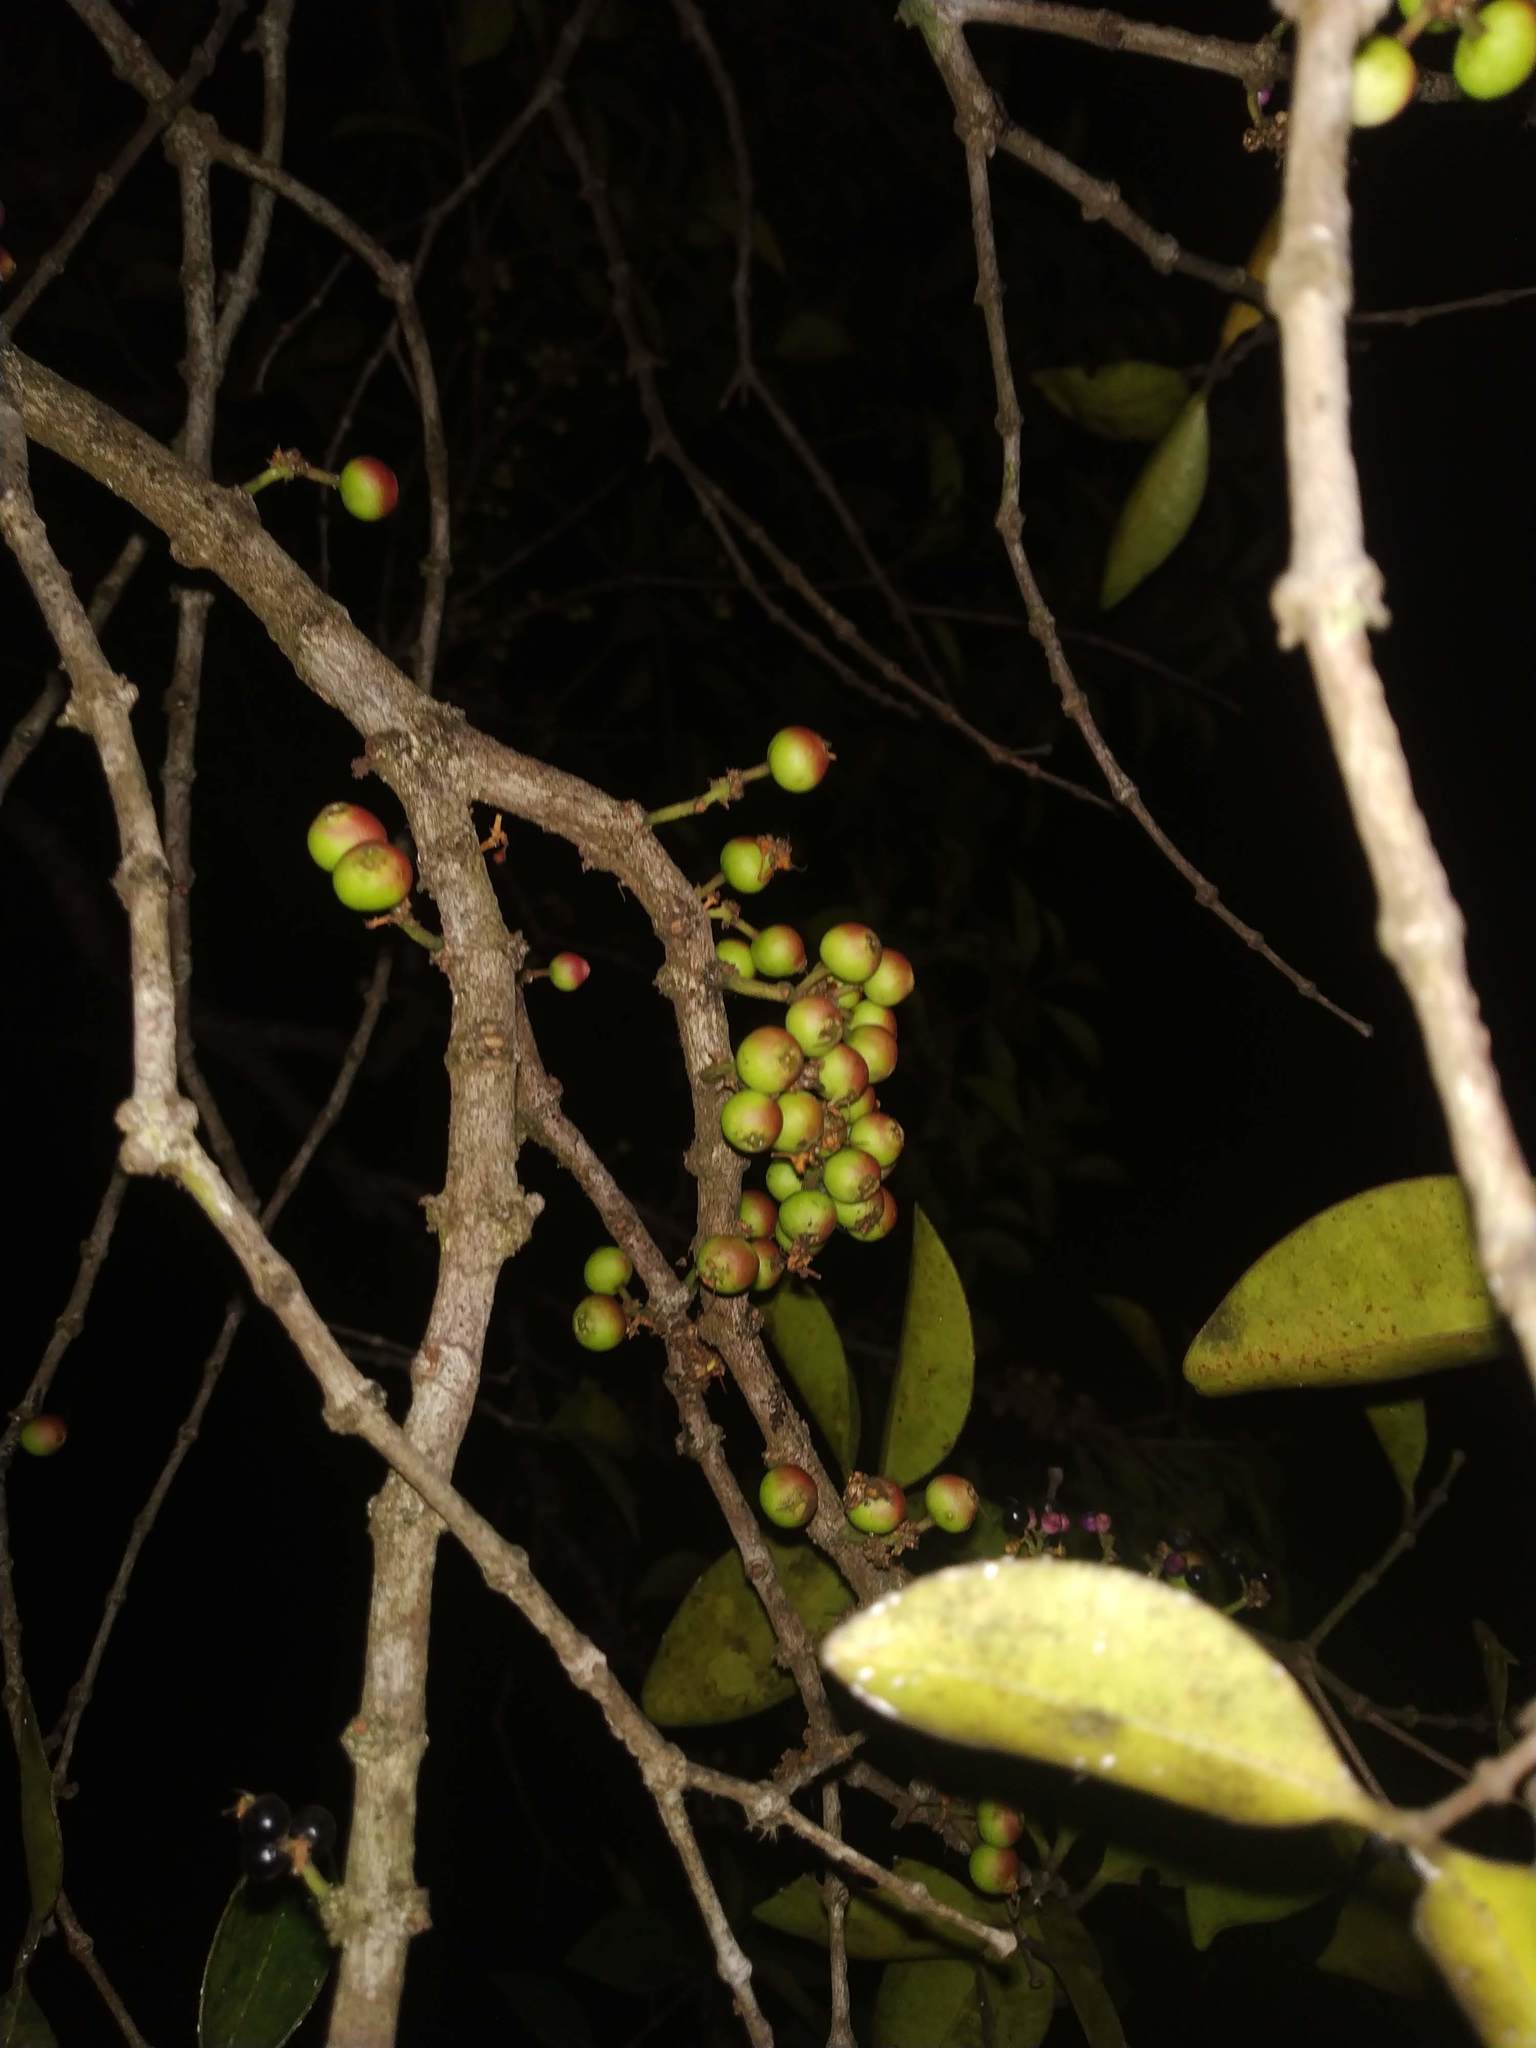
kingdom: Plantae
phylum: Tracheophyta
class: Magnoliopsida
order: Myrtales
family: Melastomataceae
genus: Memecylon
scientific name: Memecylon umbellatum
